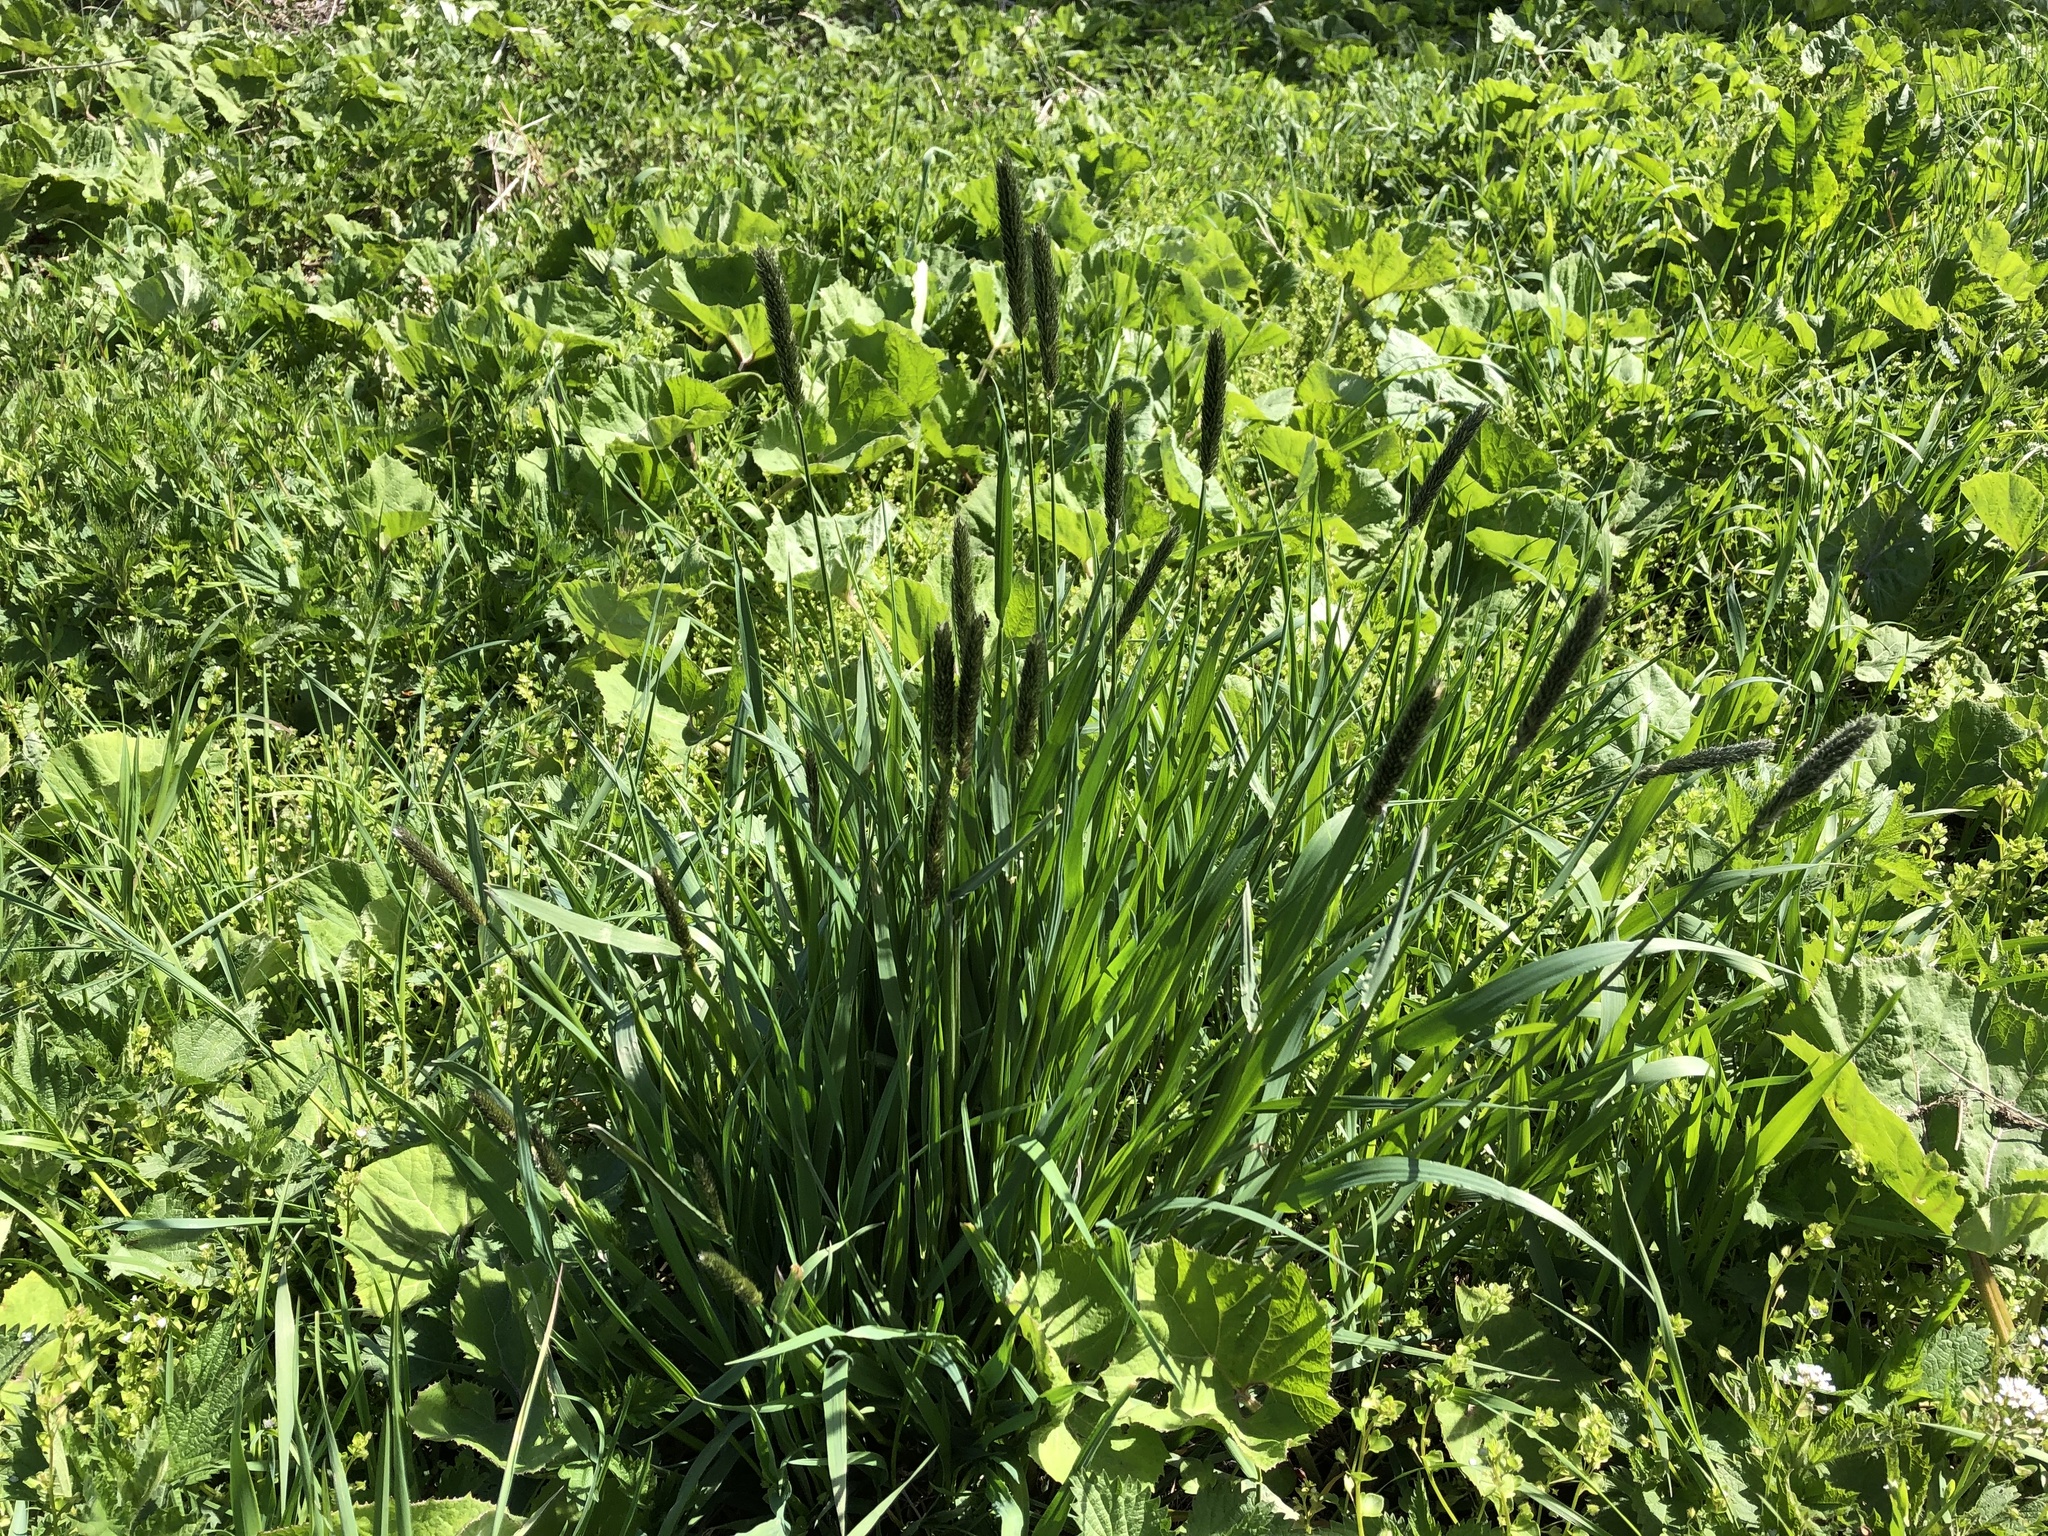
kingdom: Plantae
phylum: Tracheophyta
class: Liliopsida
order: Poales
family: Poaceae
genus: Alopecurus
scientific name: Alopecurus pratensis
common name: Meadow foxtail
